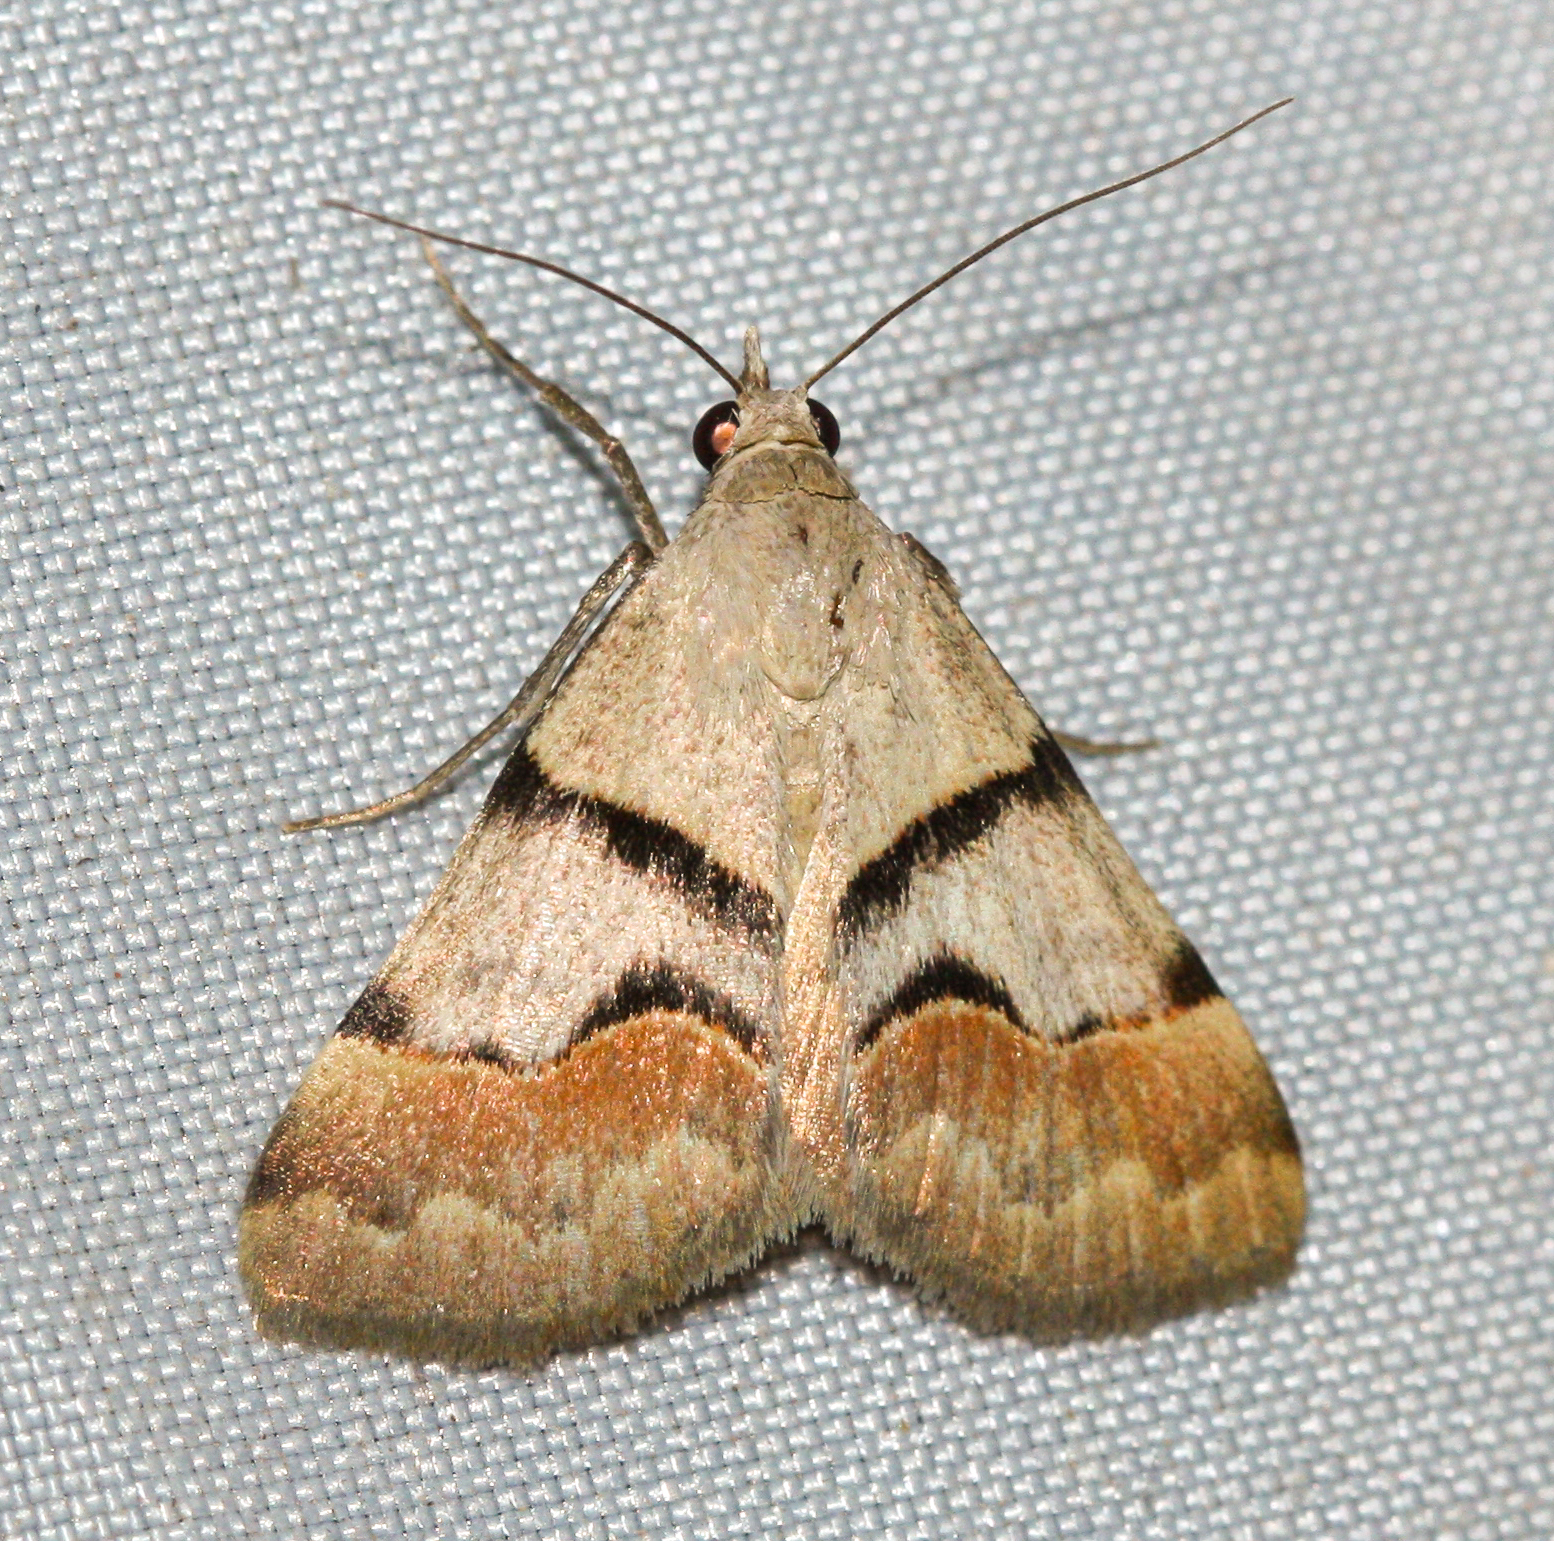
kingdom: Animalia
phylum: Arthropoda
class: Insecta
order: Lepidoptera
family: Erebidae
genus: Hemeroplanis
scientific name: Hemeroplanis incusalis
